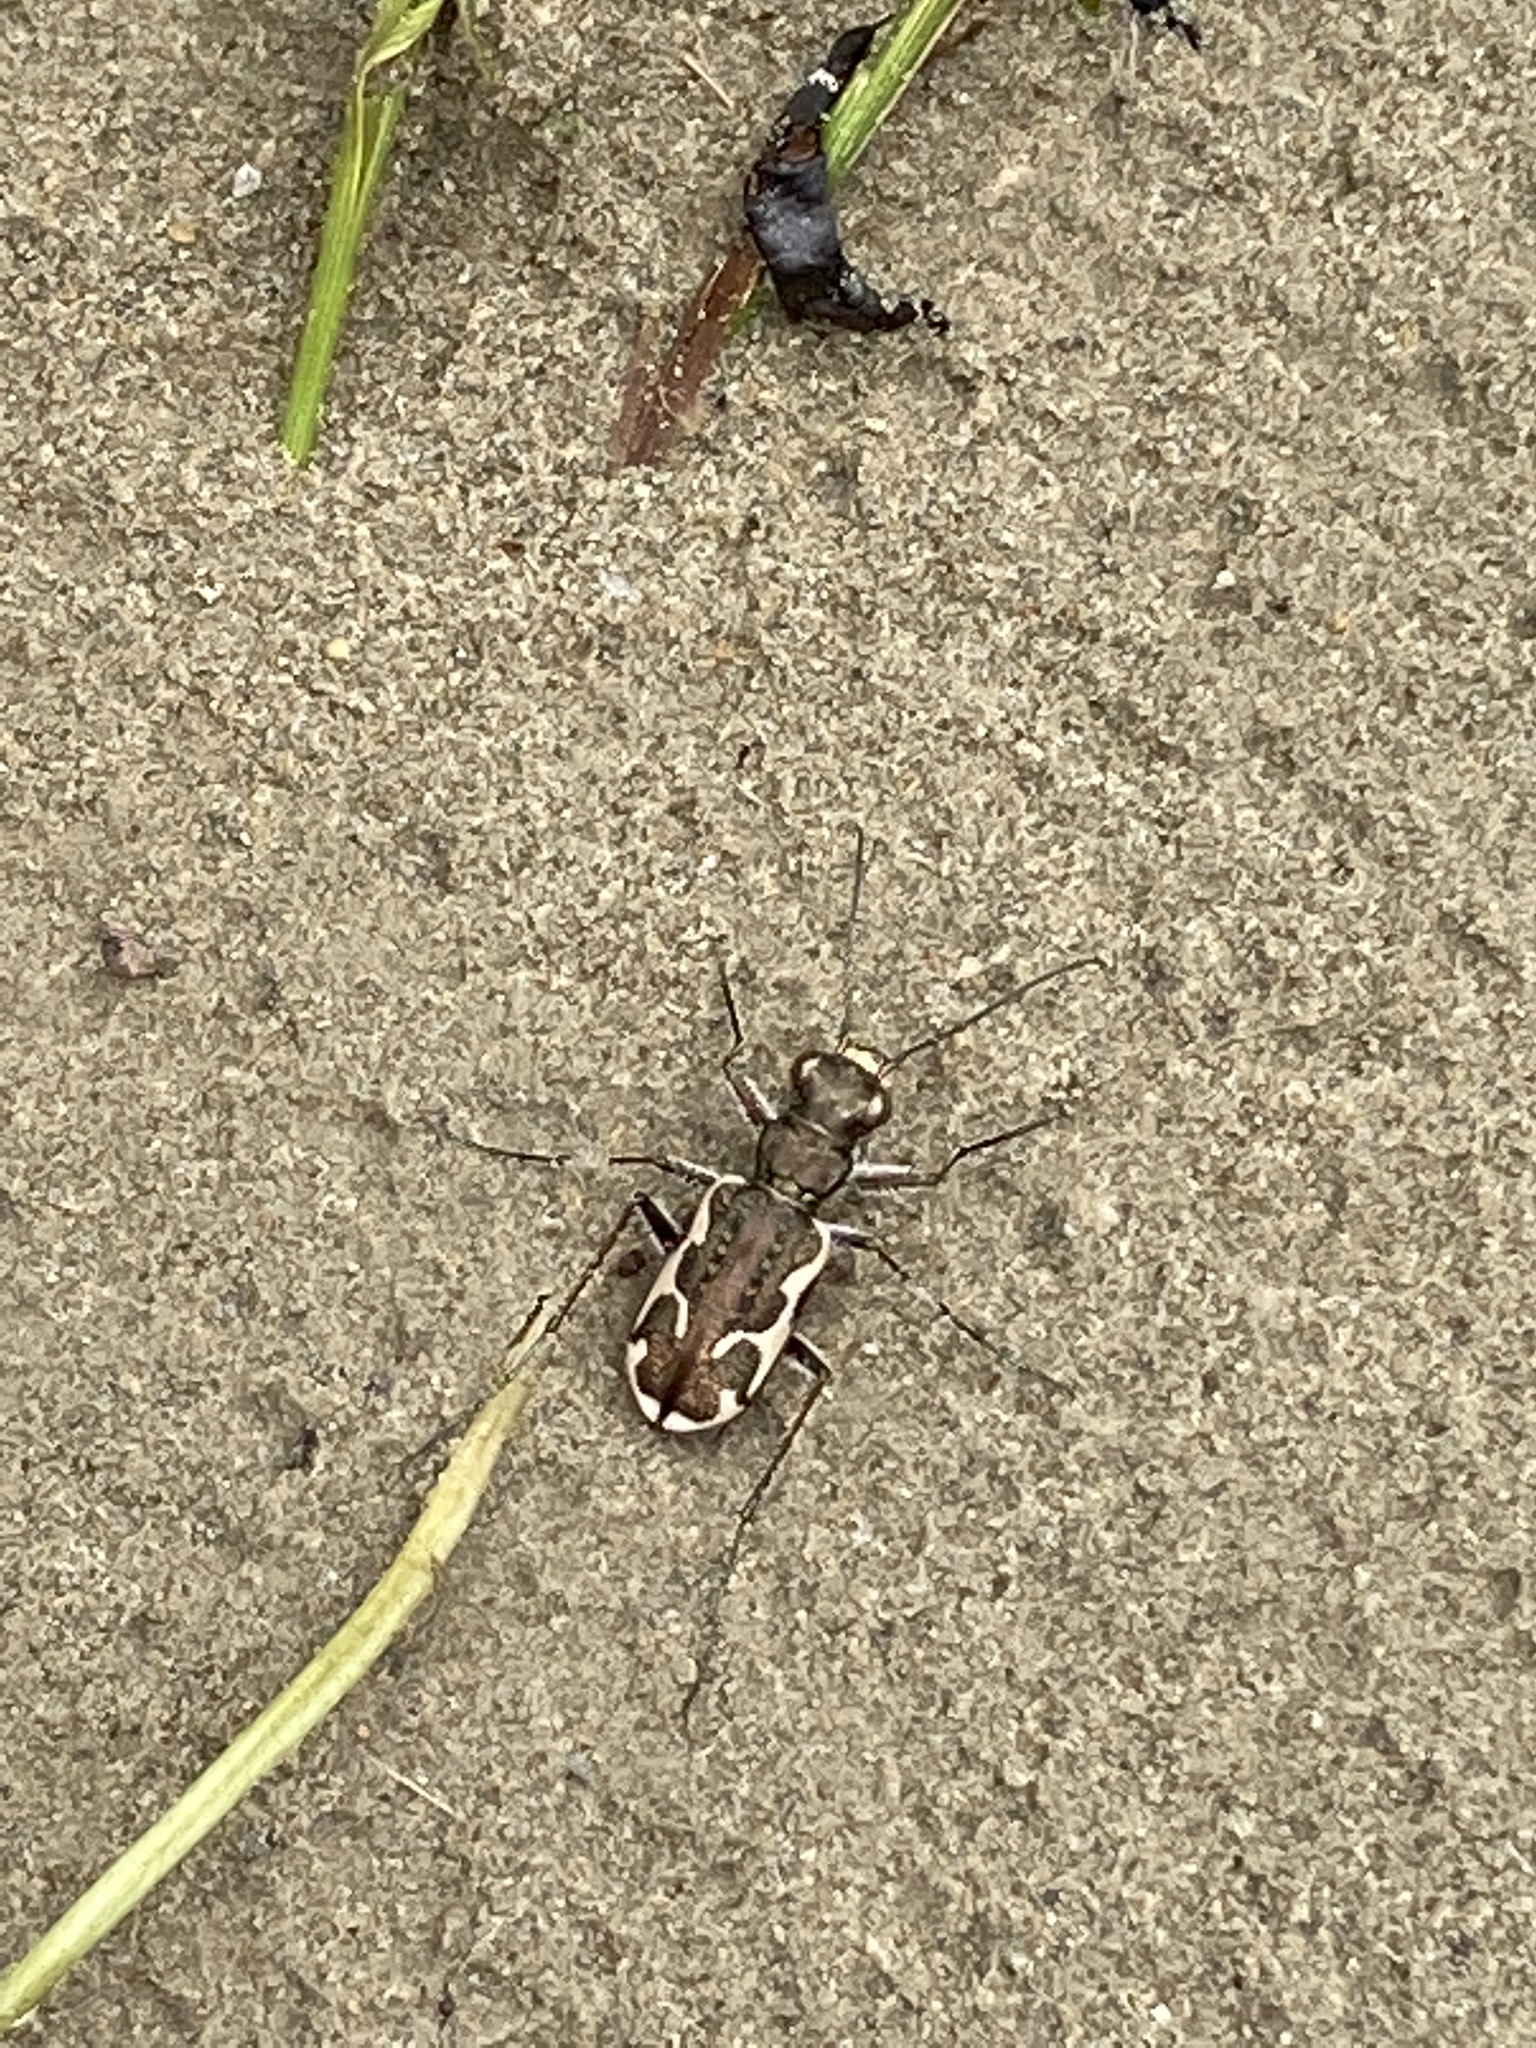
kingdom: Animalia
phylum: Arthropoda
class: Insecta
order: Coleoptera
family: Carabidae
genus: Neocicindela
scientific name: Neocicindela tuberculata
